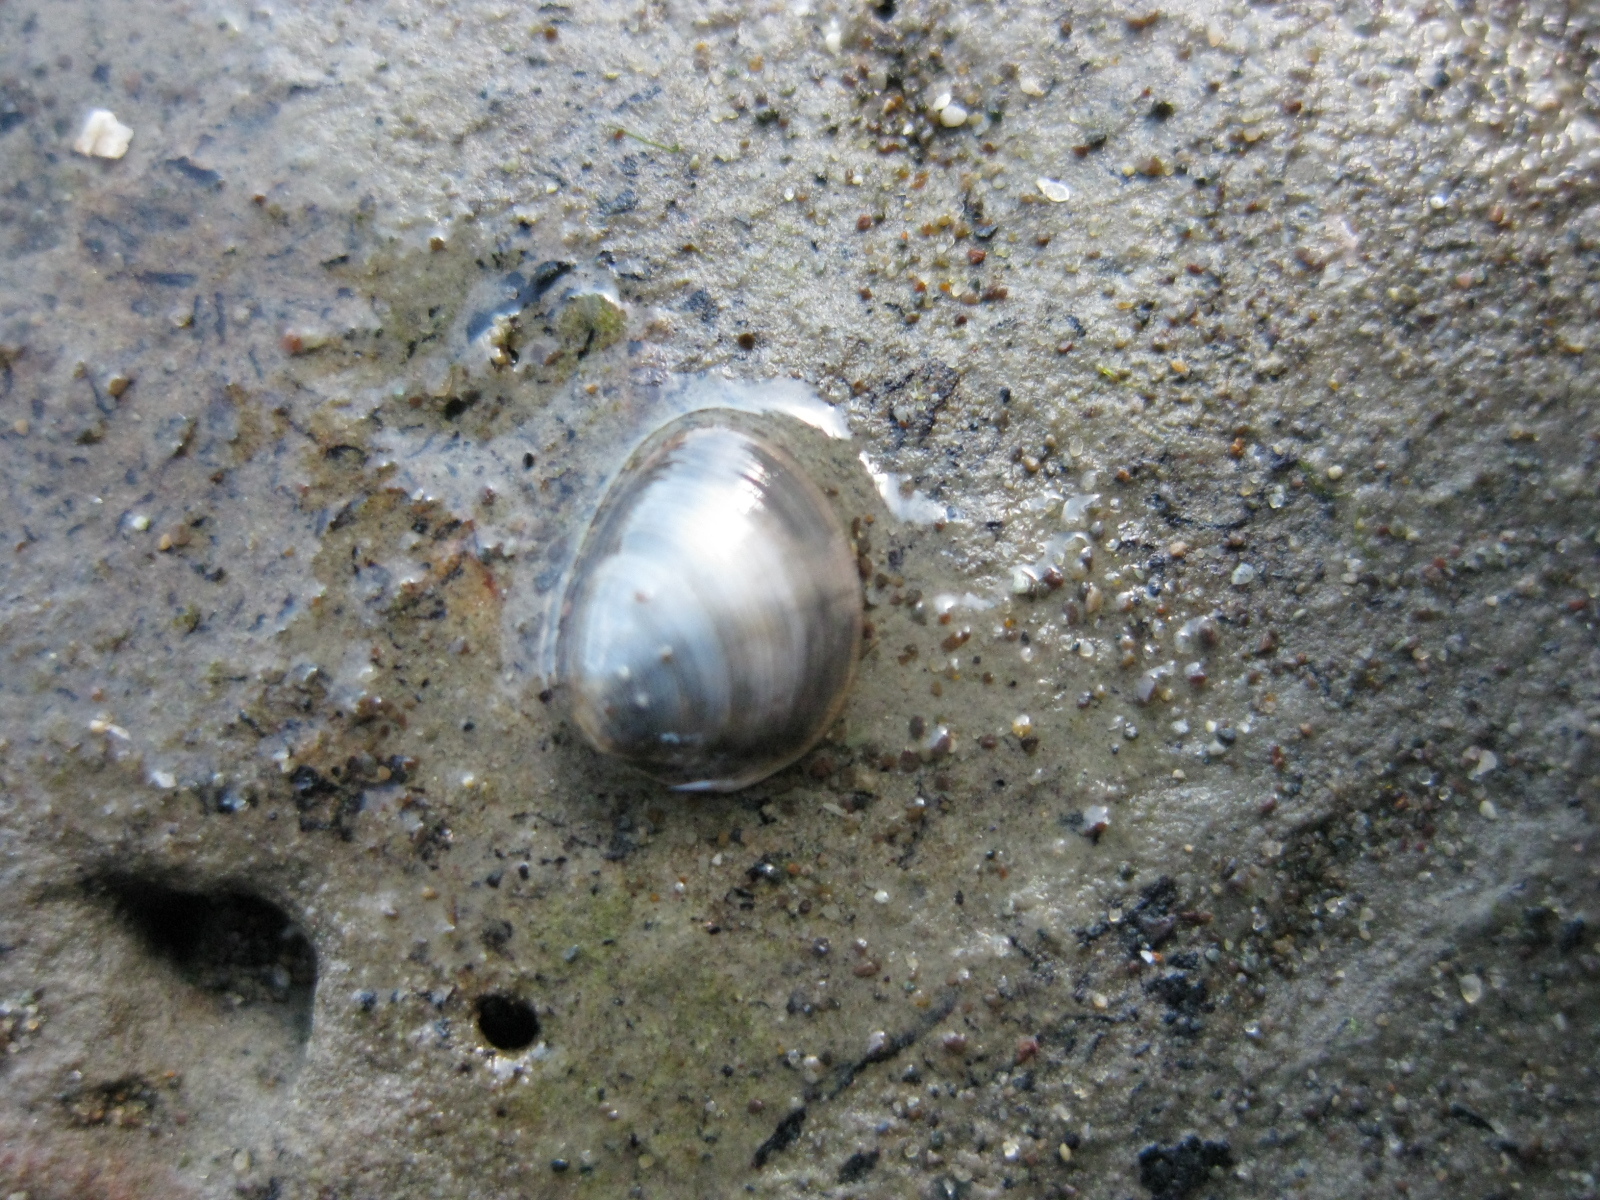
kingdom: Animalia
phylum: Mollusca
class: Bivalvia
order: Nuculida
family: Nuculidae
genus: Linucula
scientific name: Linucula hartvigiana
